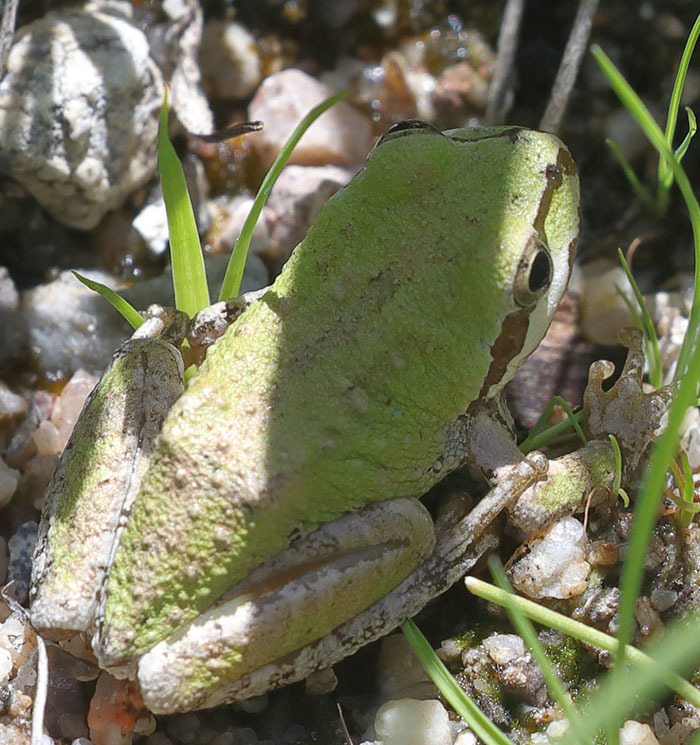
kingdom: Animalia
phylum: Chordata
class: Amphibia
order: Anura
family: Hylidae
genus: Pseudacris
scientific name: Pseudacris regilla
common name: Pacific chorus frog
